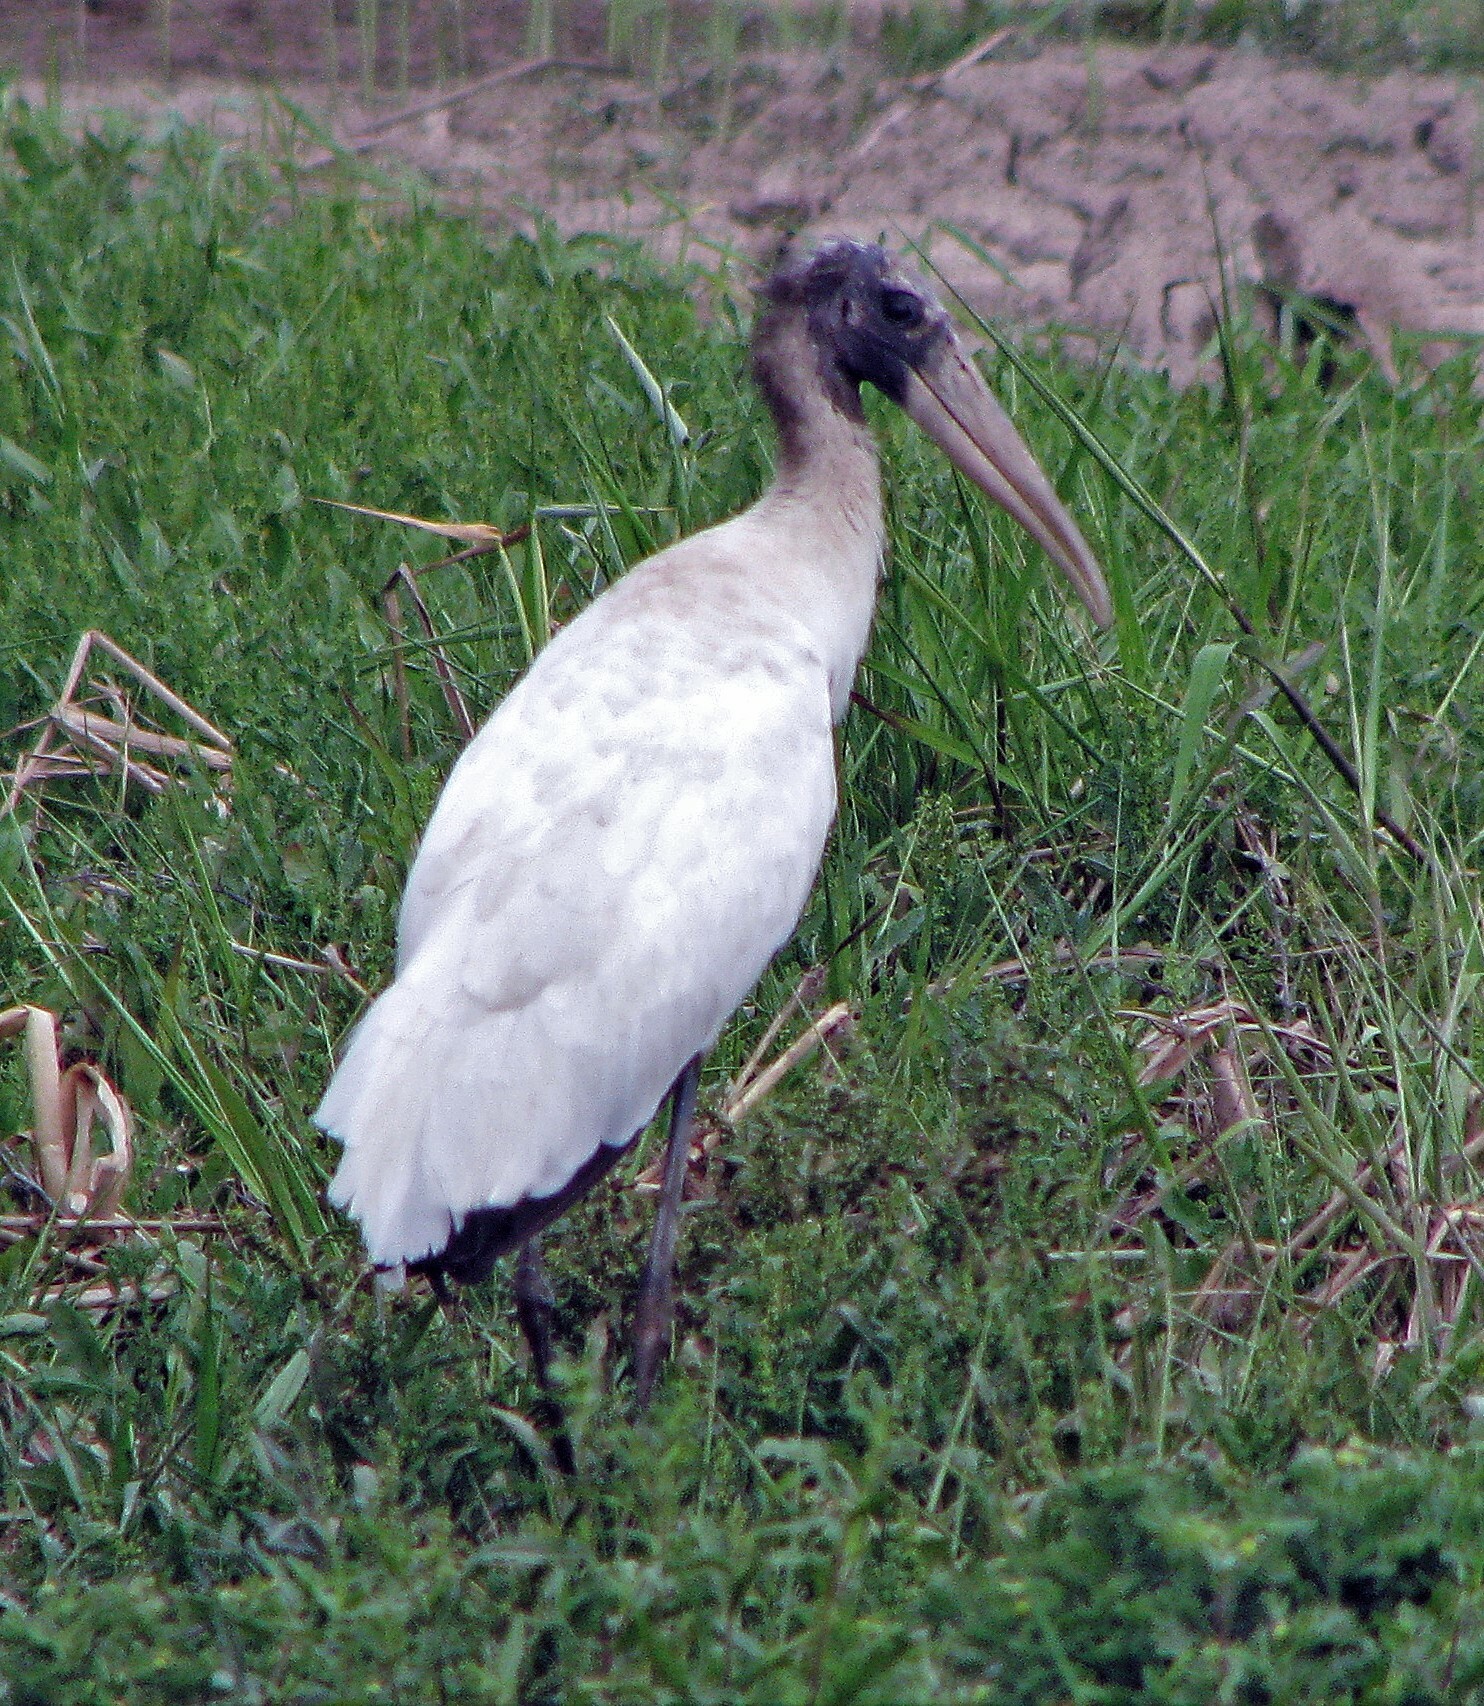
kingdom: Animalia
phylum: Chordata
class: Aves
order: Ciconiiformes
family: Ciconiidae
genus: Mycteria
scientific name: Mycteria americana
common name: Wood stork
